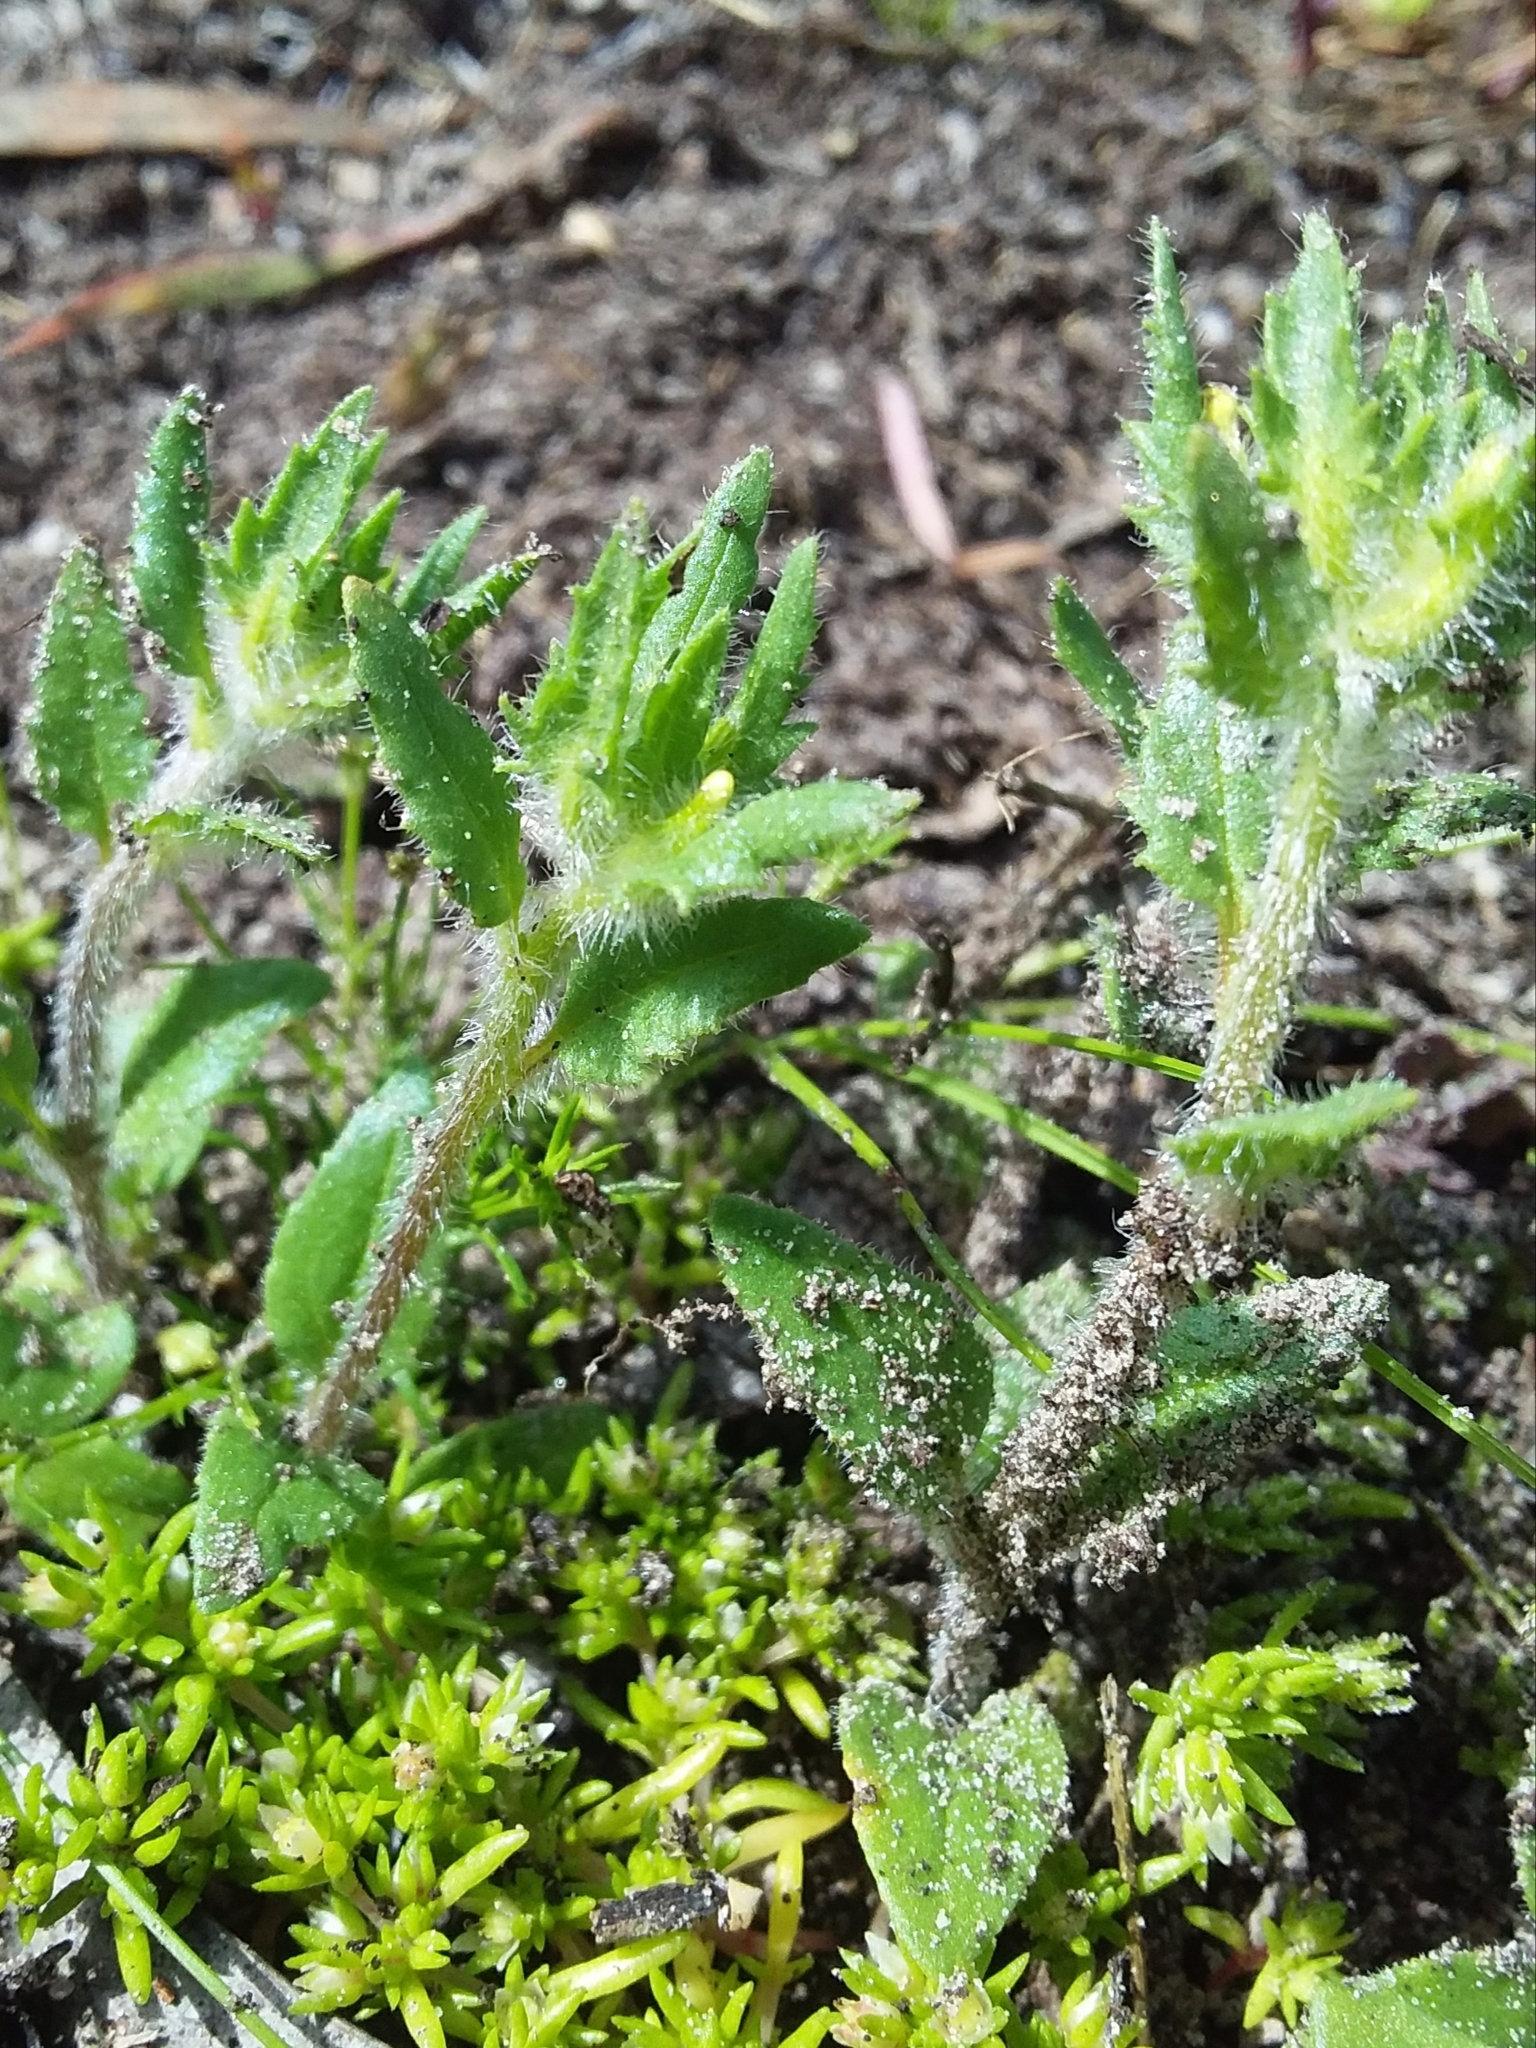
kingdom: Plantae
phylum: Tracheophyta
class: Magnoliopsida
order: Lamiales
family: Scrophulariaceae
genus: Zaluzianskya
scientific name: Zaluzianskya divaricata
